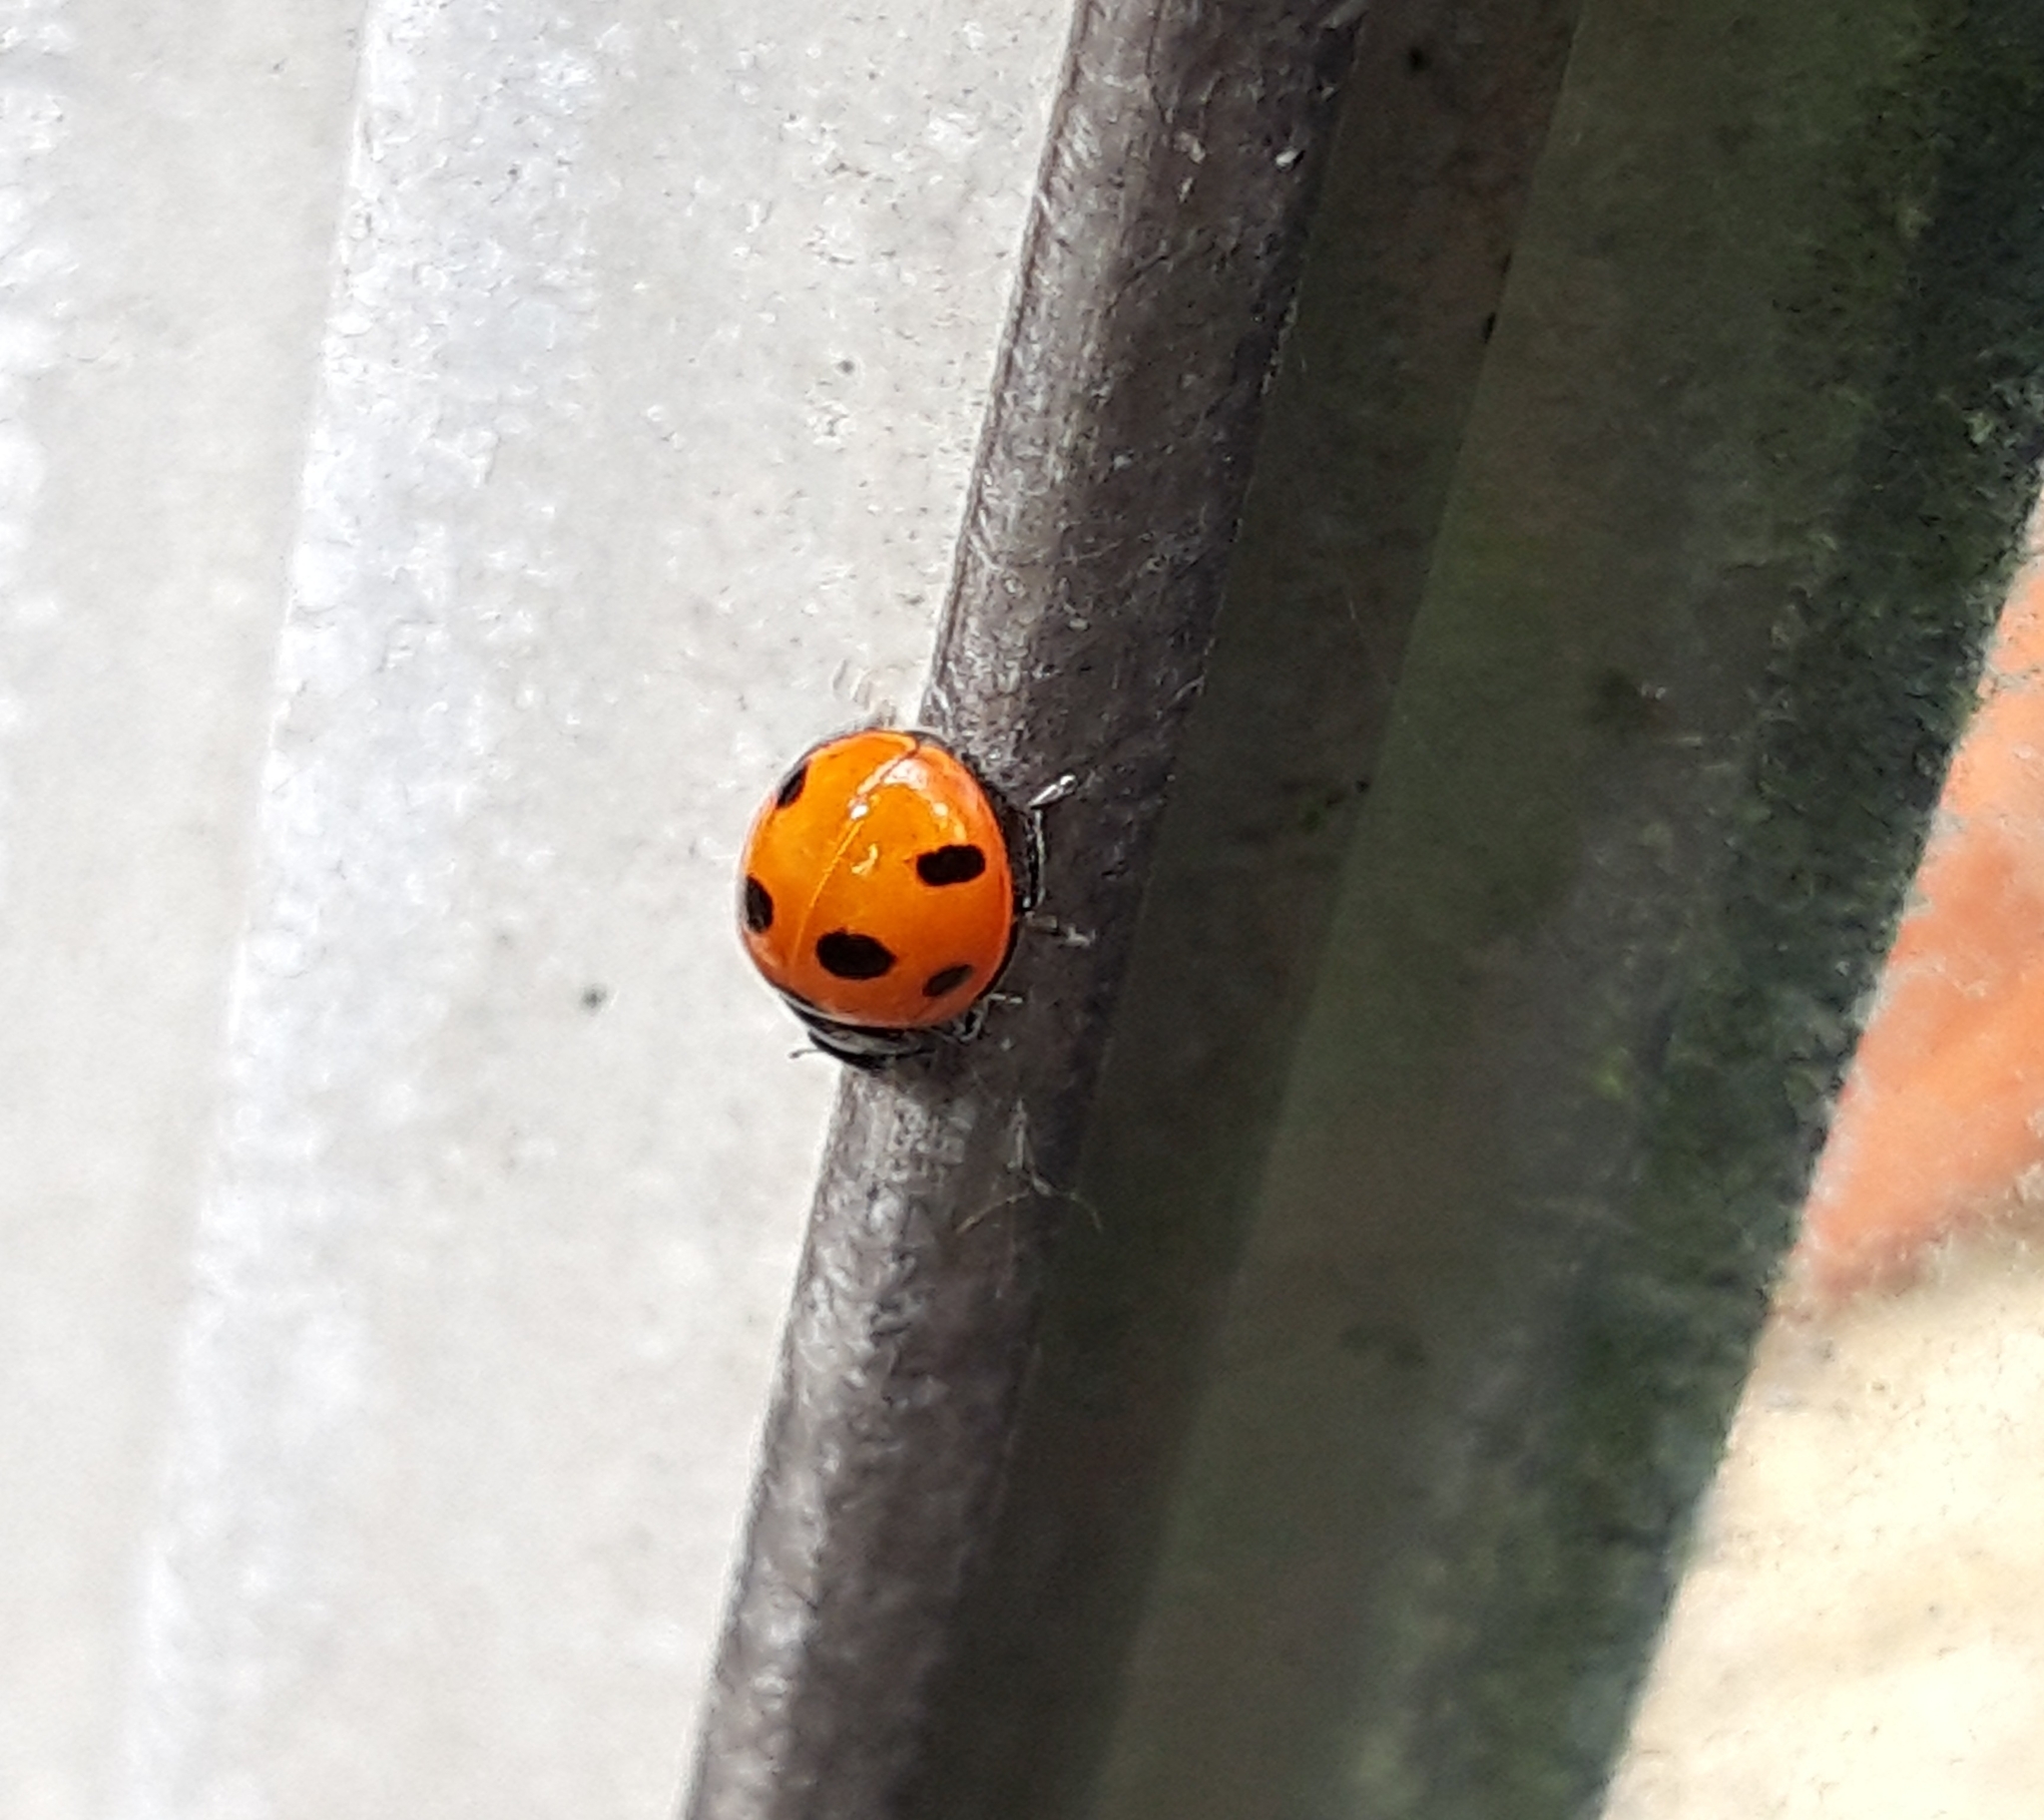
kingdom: Animalia
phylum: Arthropoda
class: Insecta
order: Coleoptera
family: Coccinellidae
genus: Coccinella
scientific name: Coccinella septempunctata
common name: Sevenspotted lady beetle
